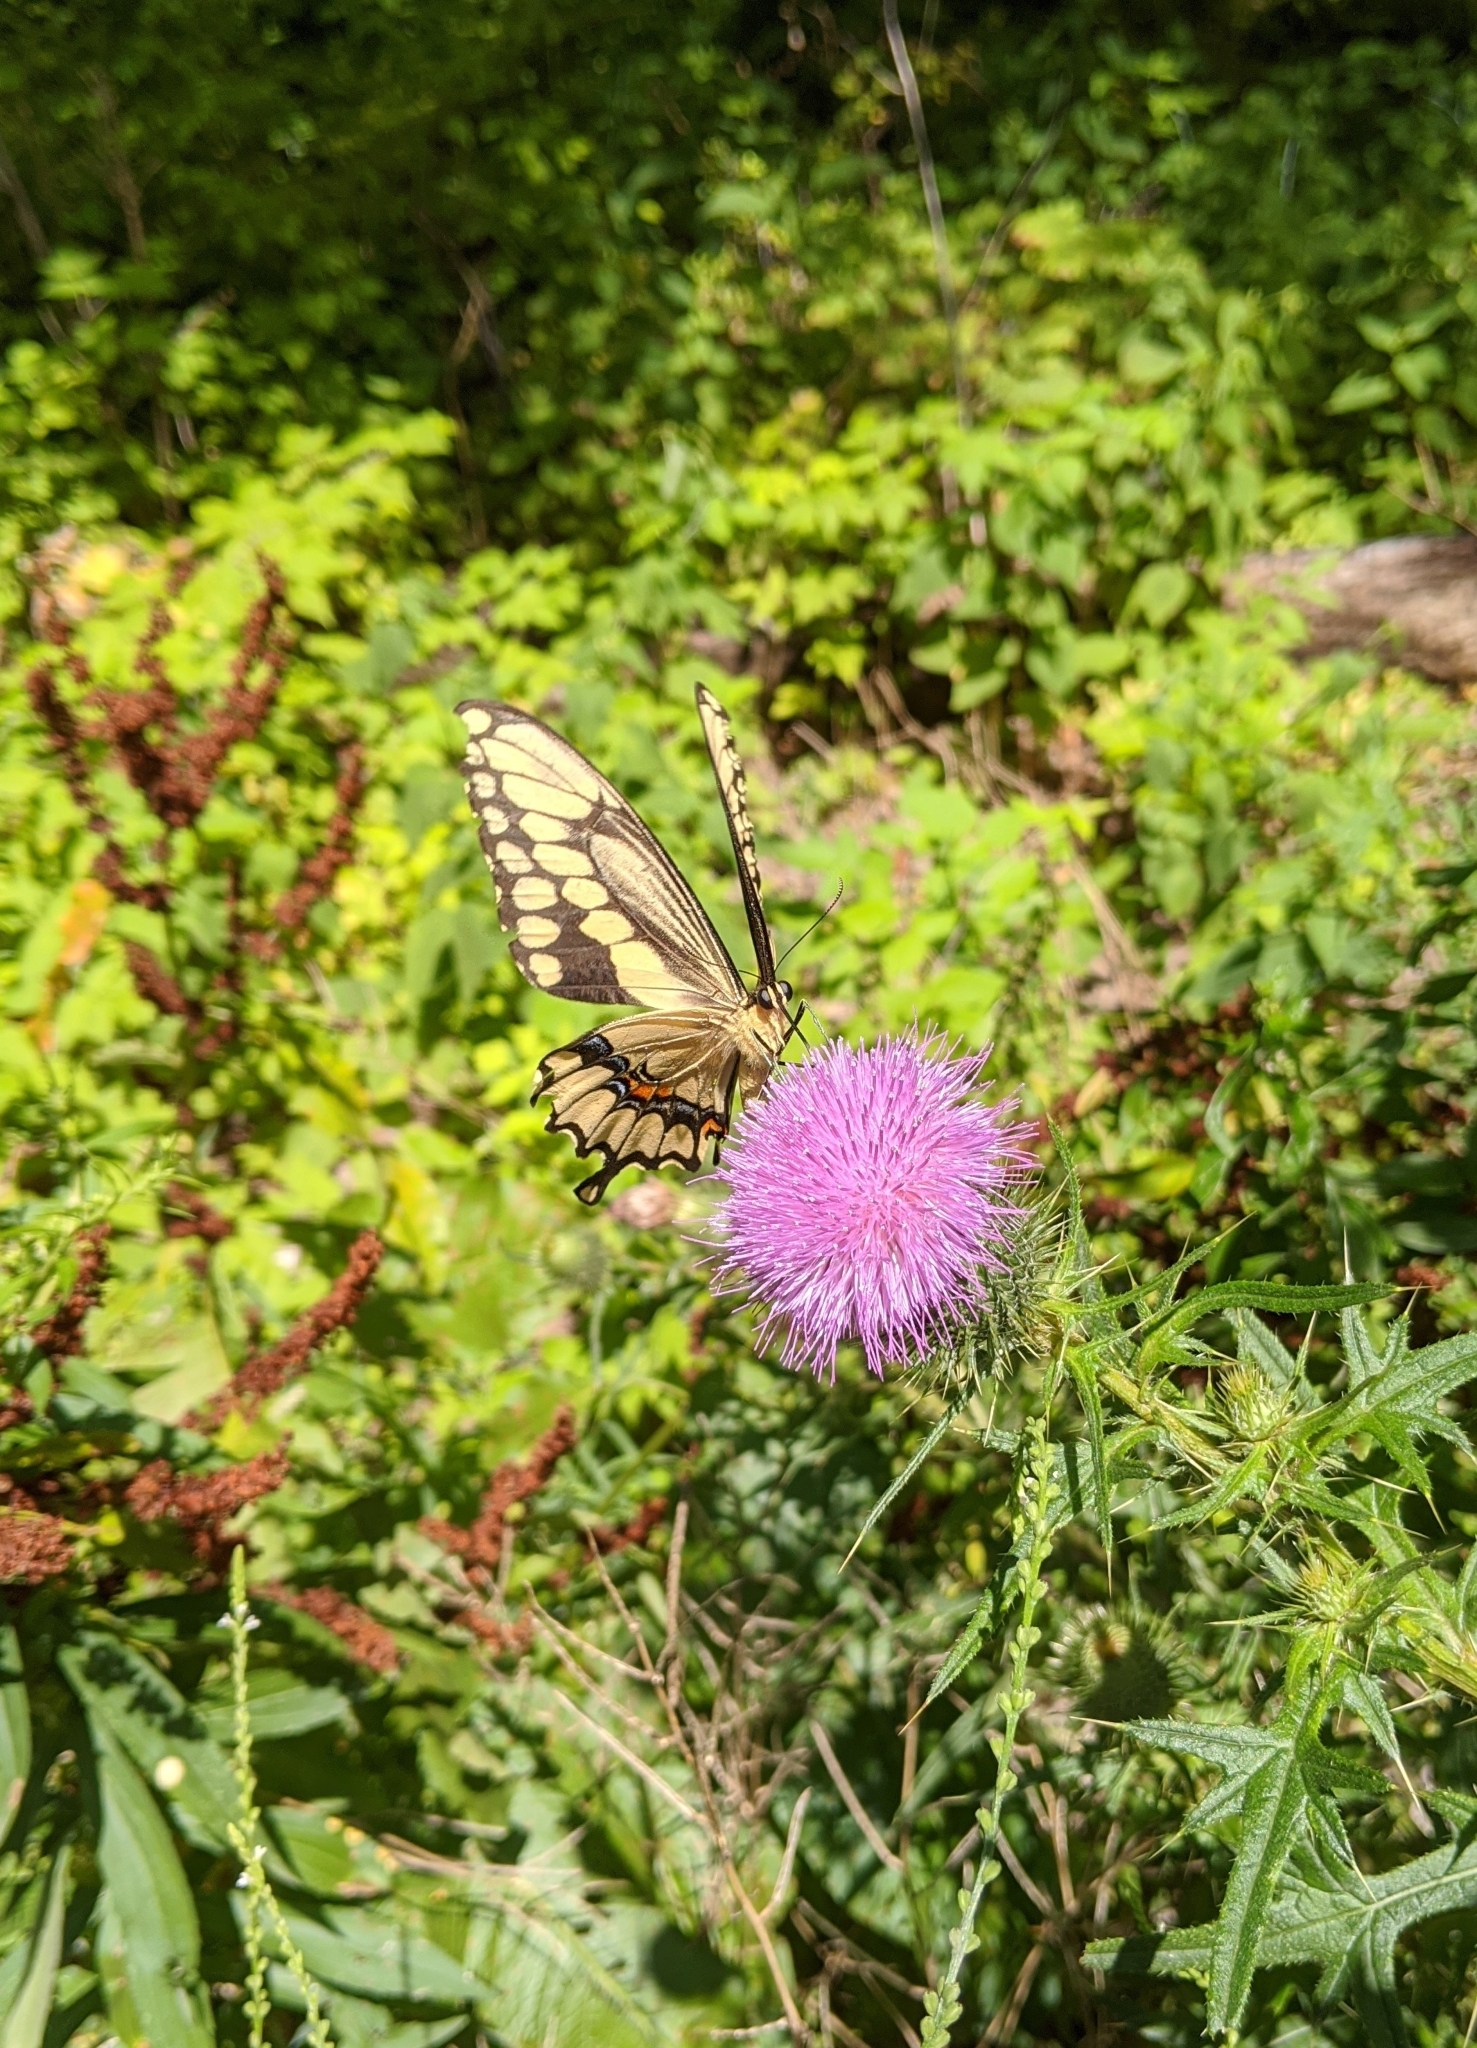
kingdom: Animalia
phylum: Arthropoda
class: Insecta
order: Lepidoptera
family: Papilionidae
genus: Papilio
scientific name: Papilio cresphontes
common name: Giant swallowtail
